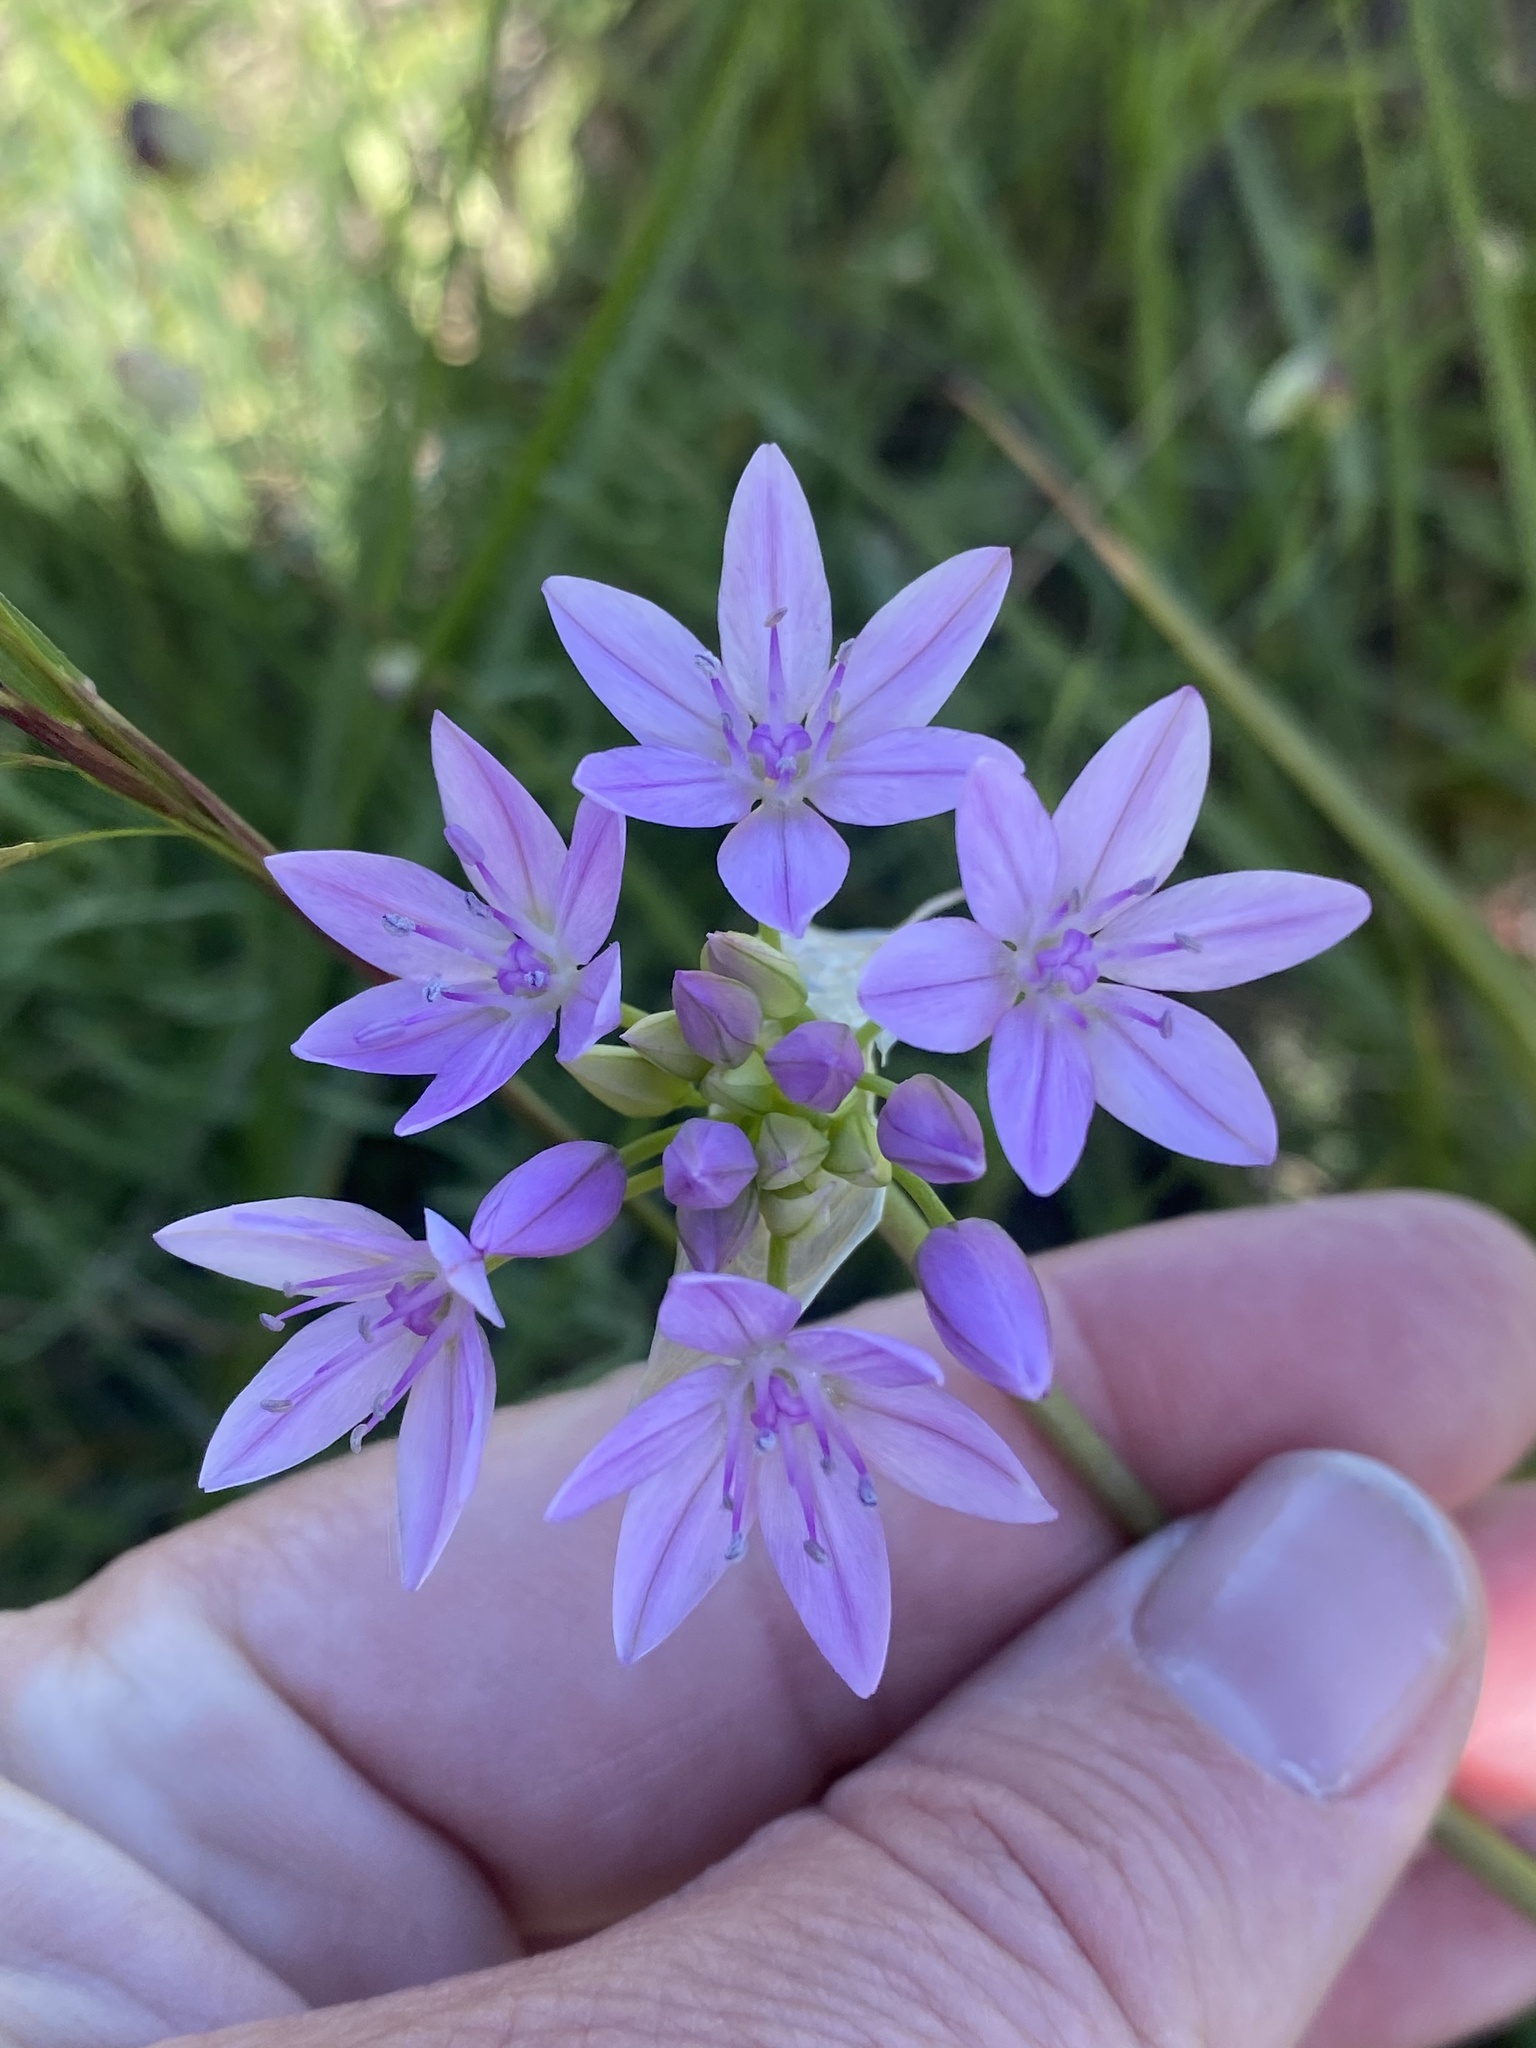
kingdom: Plantae
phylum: Tracheophyta
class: Liliopsida
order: Asparagales
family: Amaryllidaceae
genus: Allium
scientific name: Allium unifolium
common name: American garlic
